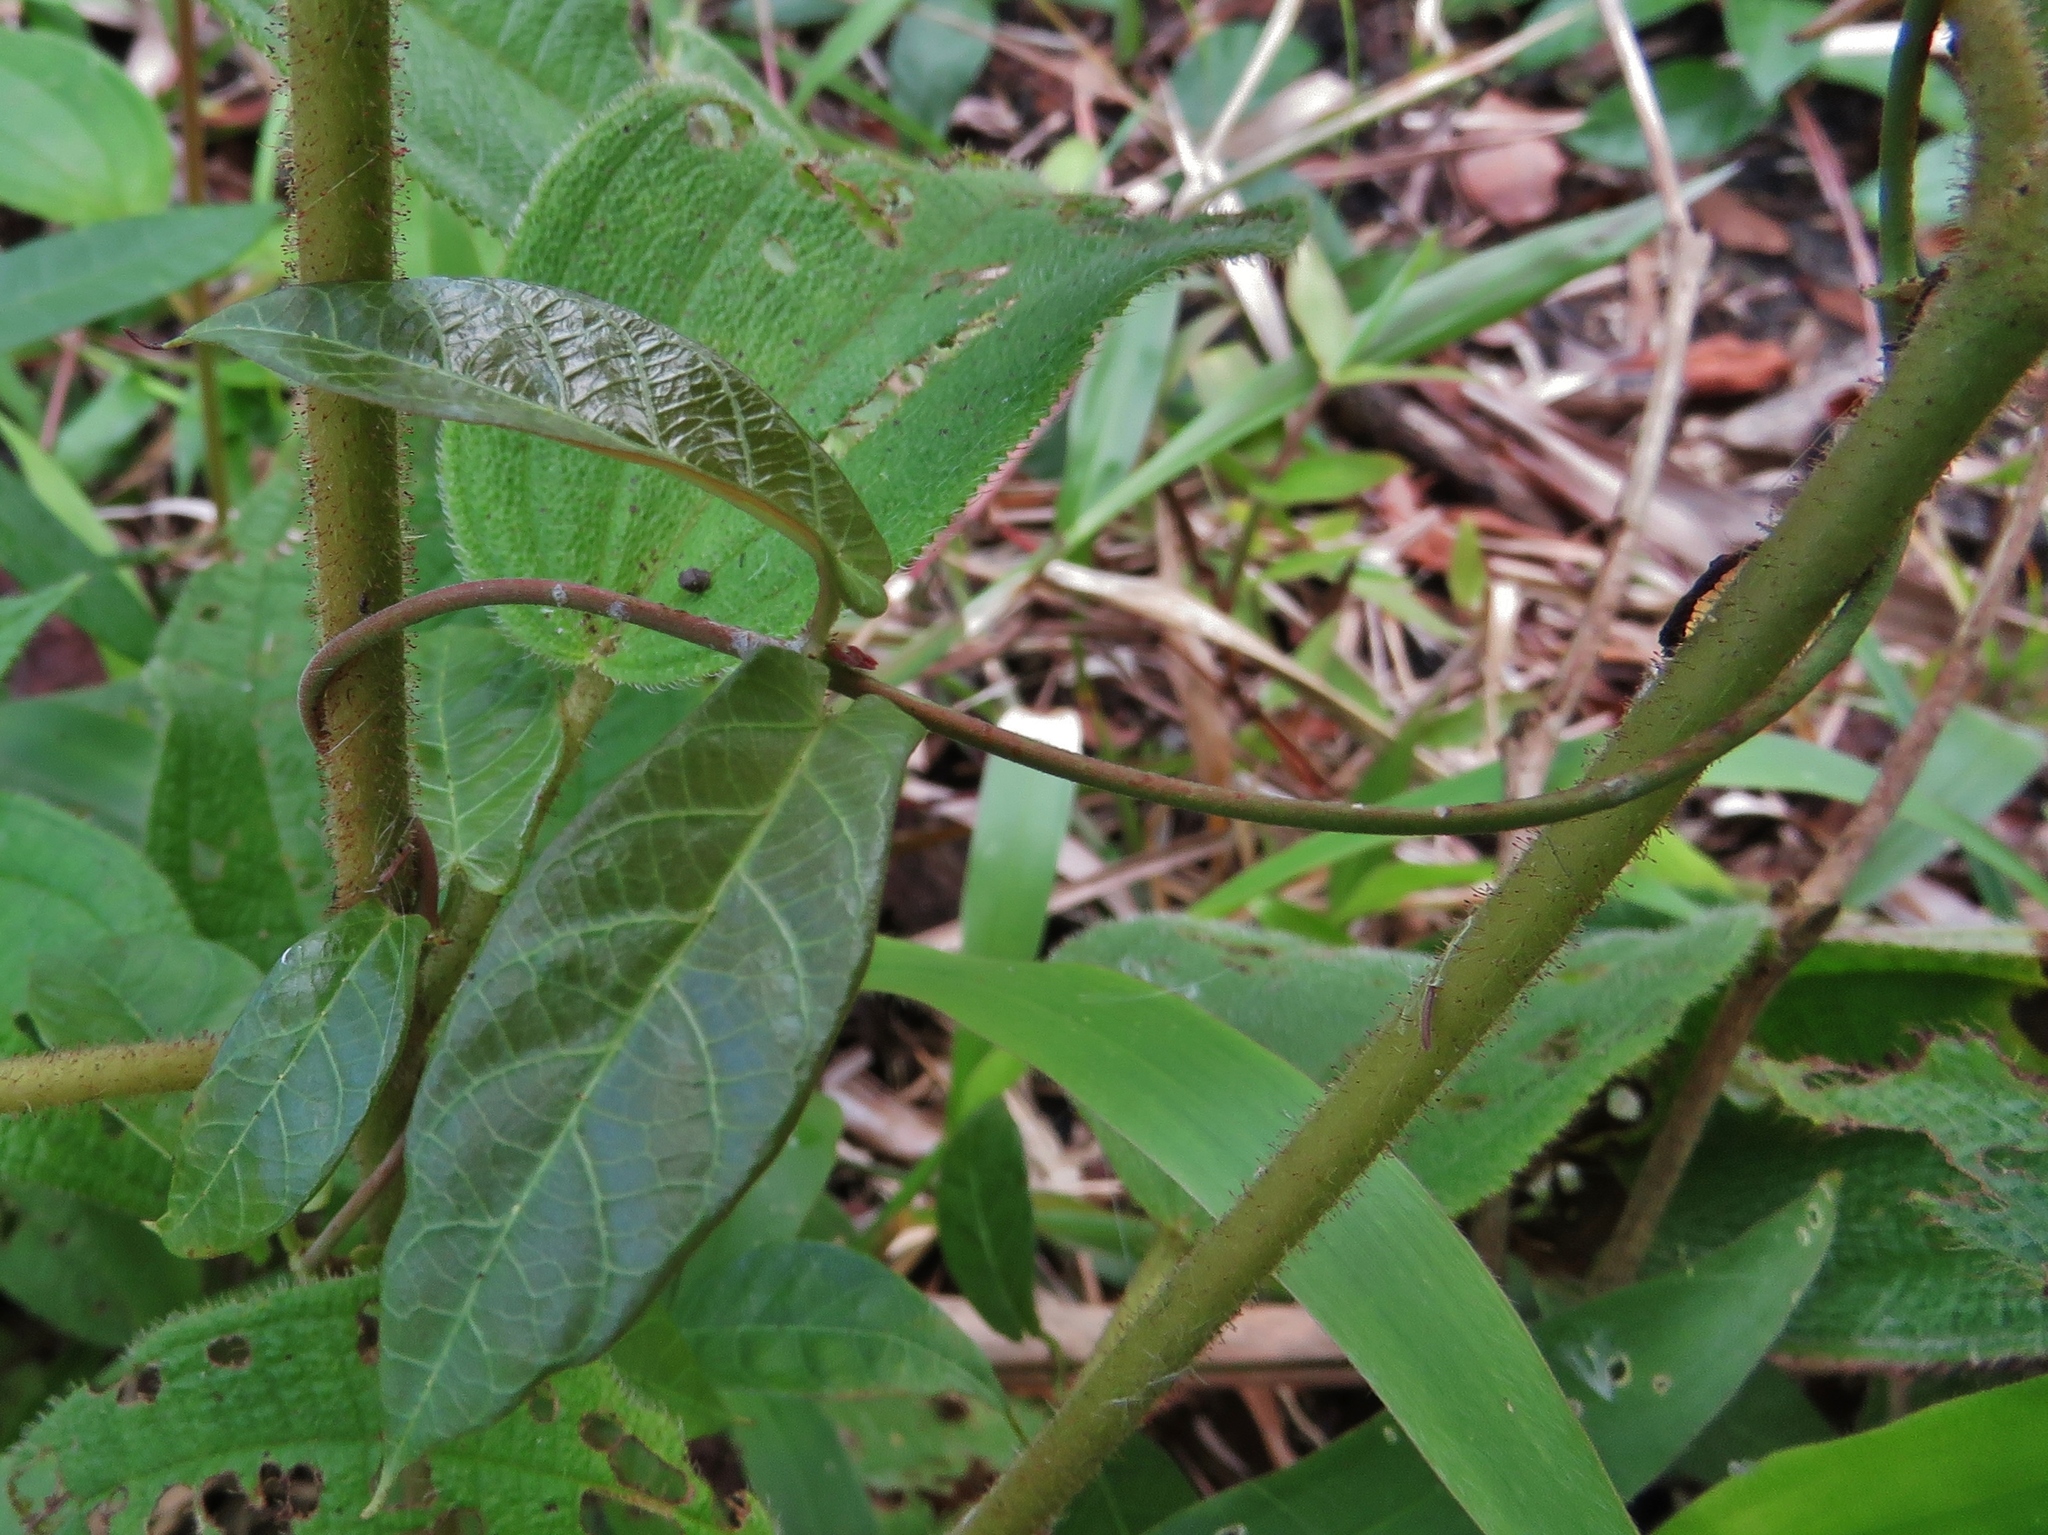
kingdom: Plantae
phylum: Tracheophyta
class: Magnoliopsida
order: Gentianales
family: Apocynaceae
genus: Mandevilla
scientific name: Mandevilla subsagittata
